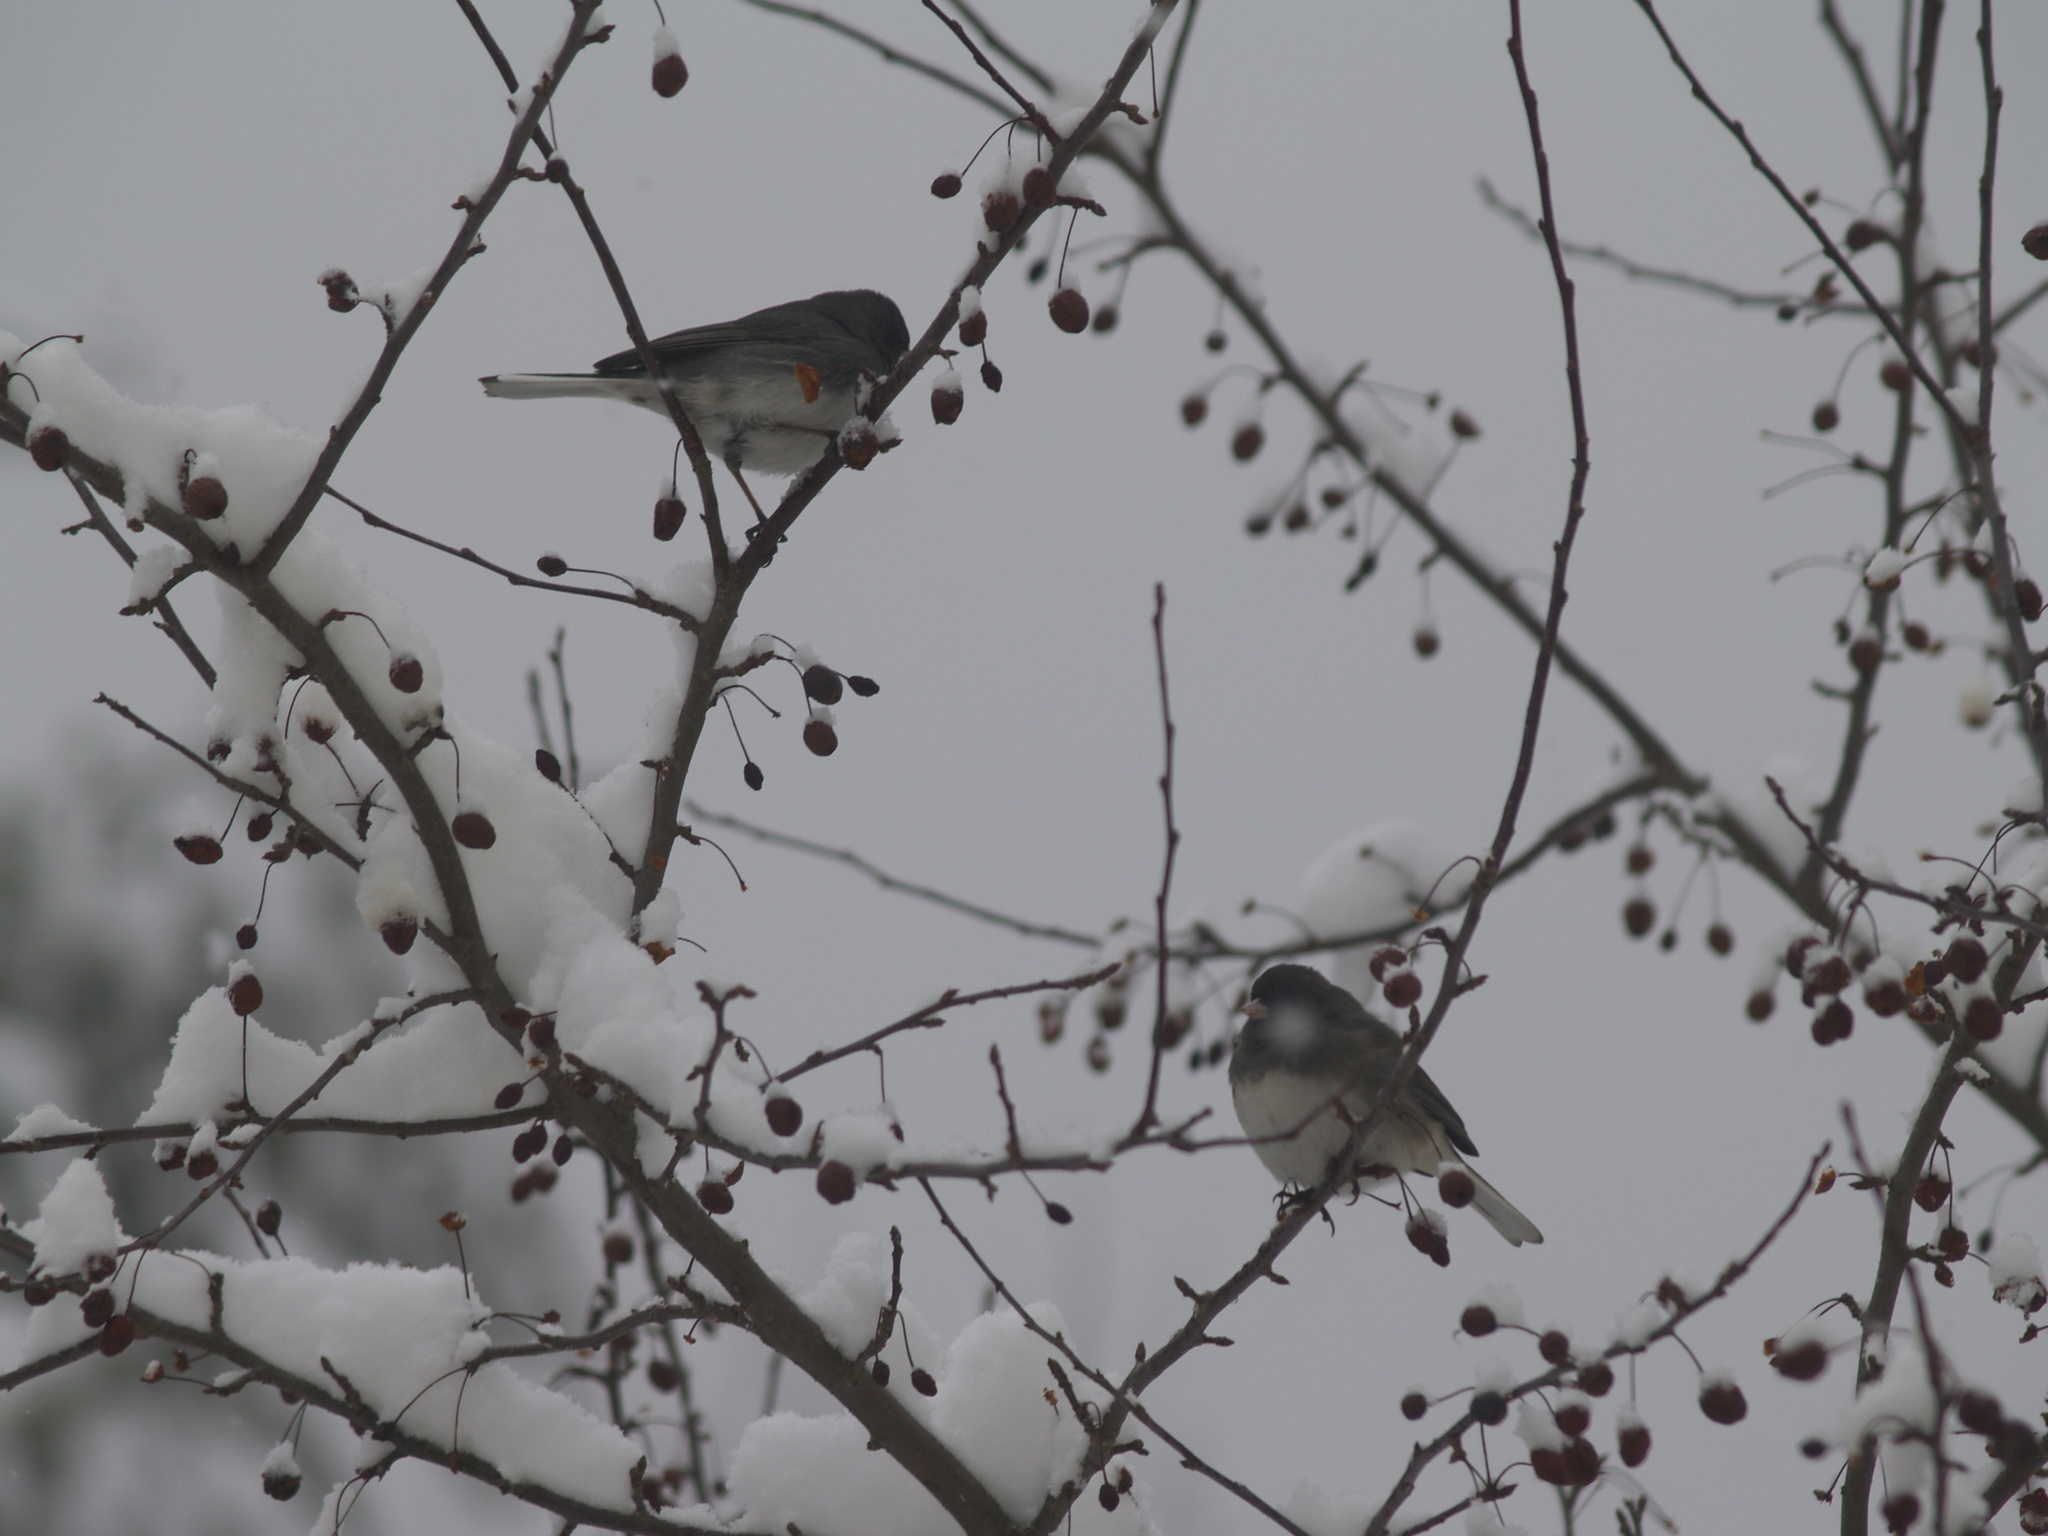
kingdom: Animalia
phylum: Chordata
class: Aves
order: Passeriformes
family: Passerellidae
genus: Junco
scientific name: Junco hyemalis
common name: Dark-eyed junco
